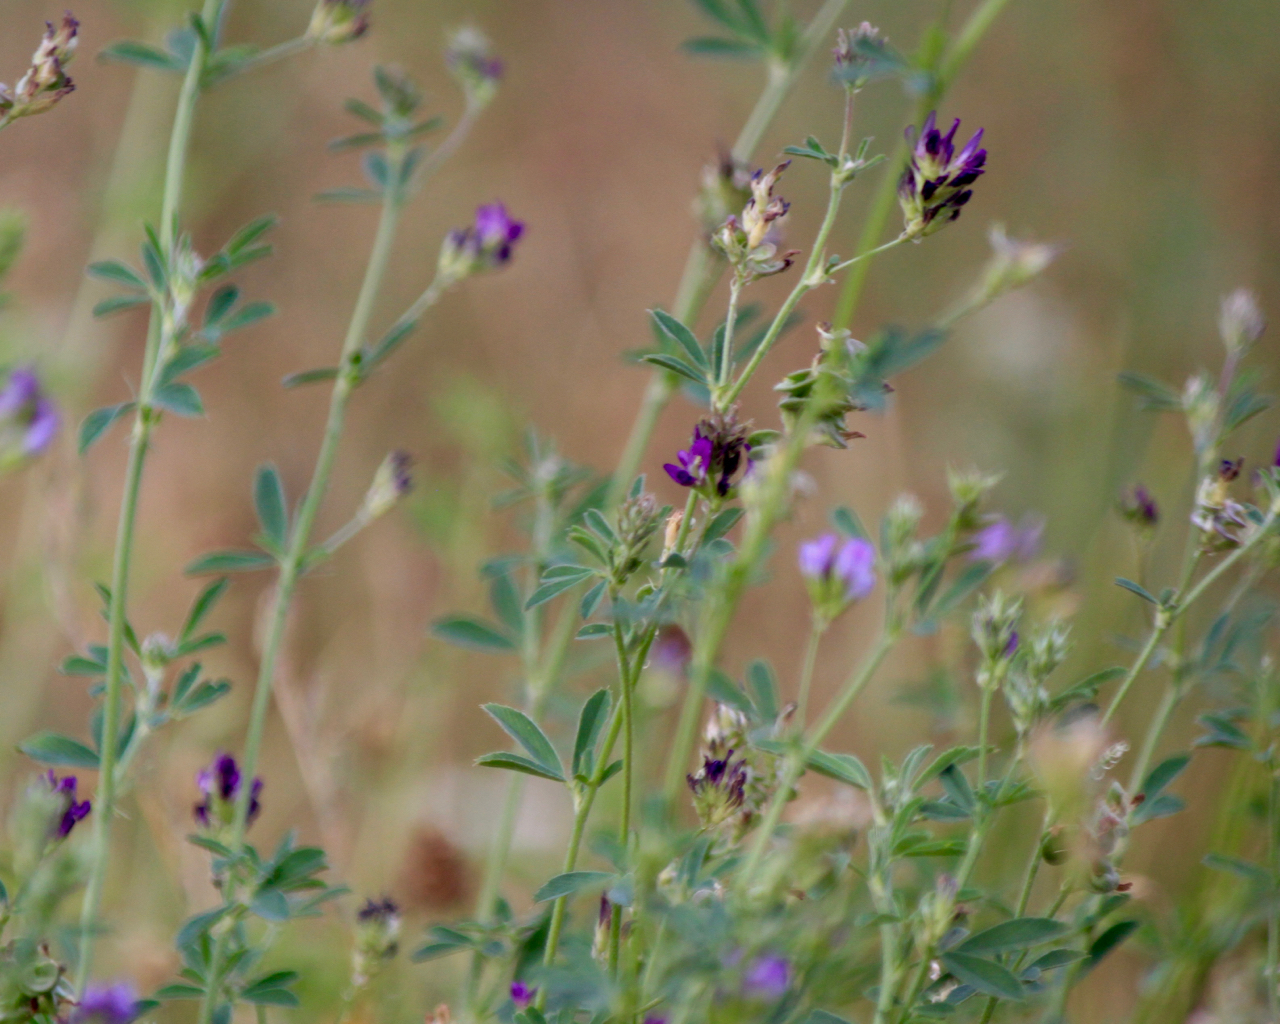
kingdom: Plantae
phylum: Tracheophyta
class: Magnoliopsida
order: Fabales
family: Fabaceae
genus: Medicago
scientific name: Medicago sativa
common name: Alfalfa
